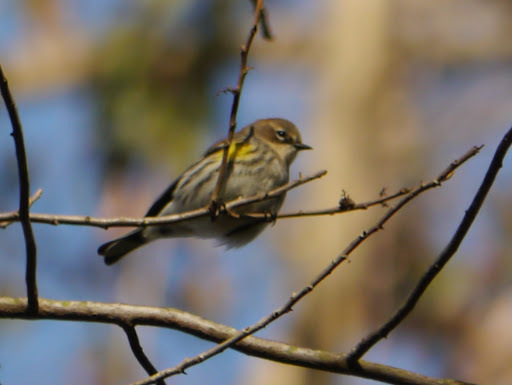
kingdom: Animalia
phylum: Chordata
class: Aves
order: Passeriformes
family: Parulidae
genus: Setophaga
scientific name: Setophaga coronata
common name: Myrtle warbler
